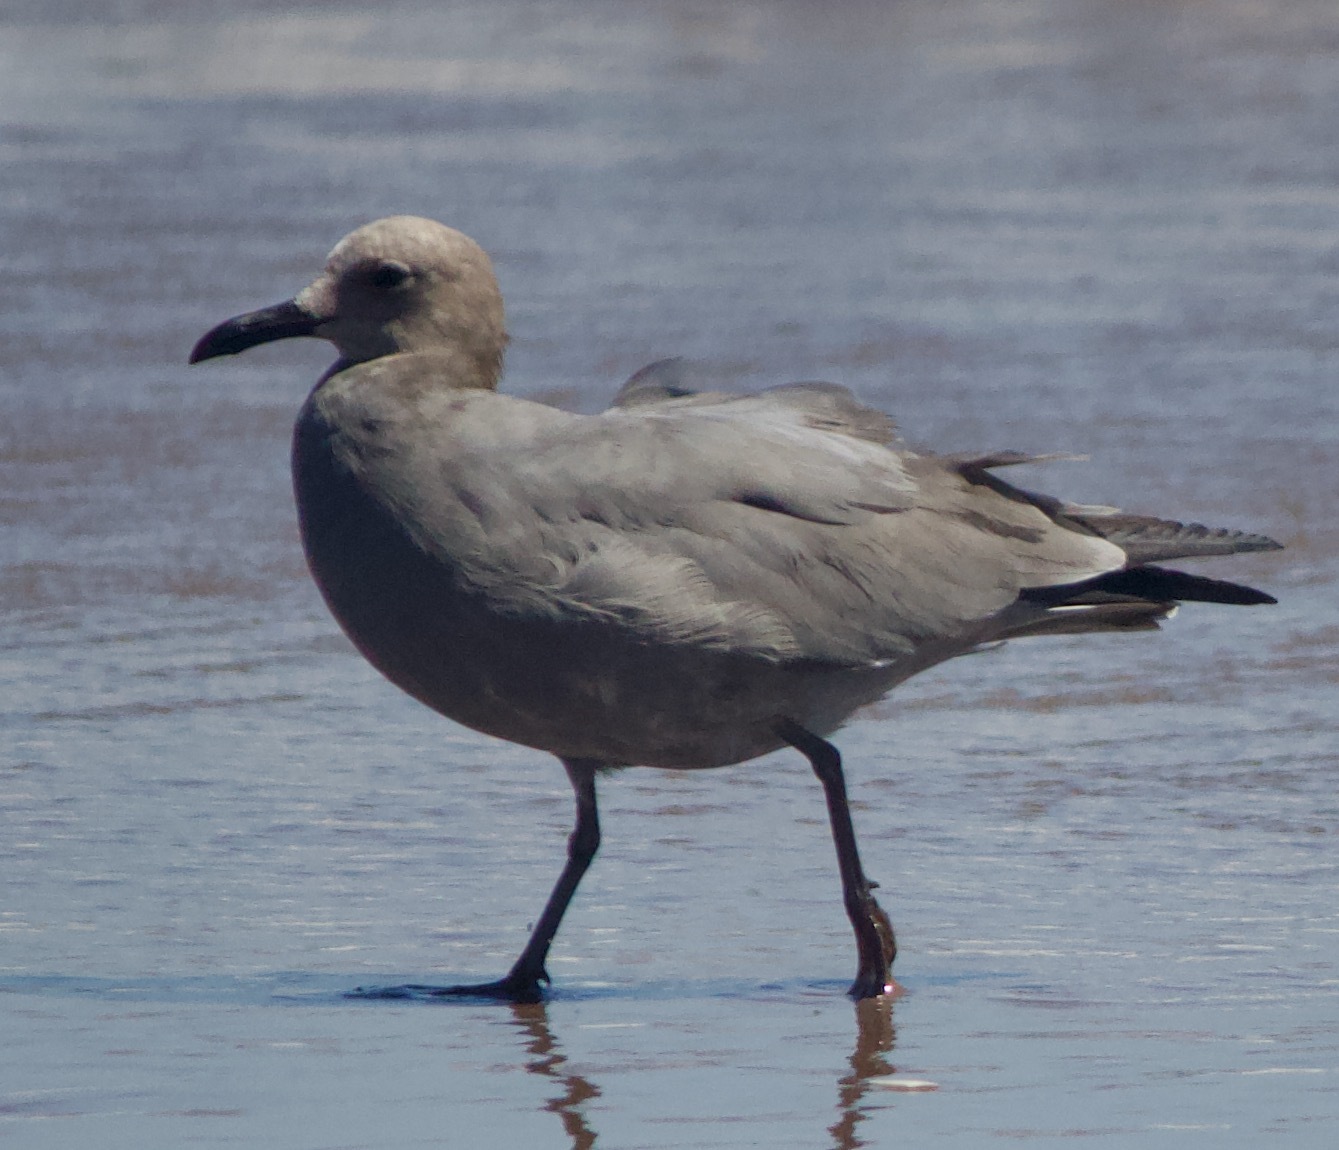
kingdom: Animalia
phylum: Chordata
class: Aves
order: Charadriiformes
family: Laridae
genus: Leucophaeus
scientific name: Leucophaeus modestus
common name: Gray gull
